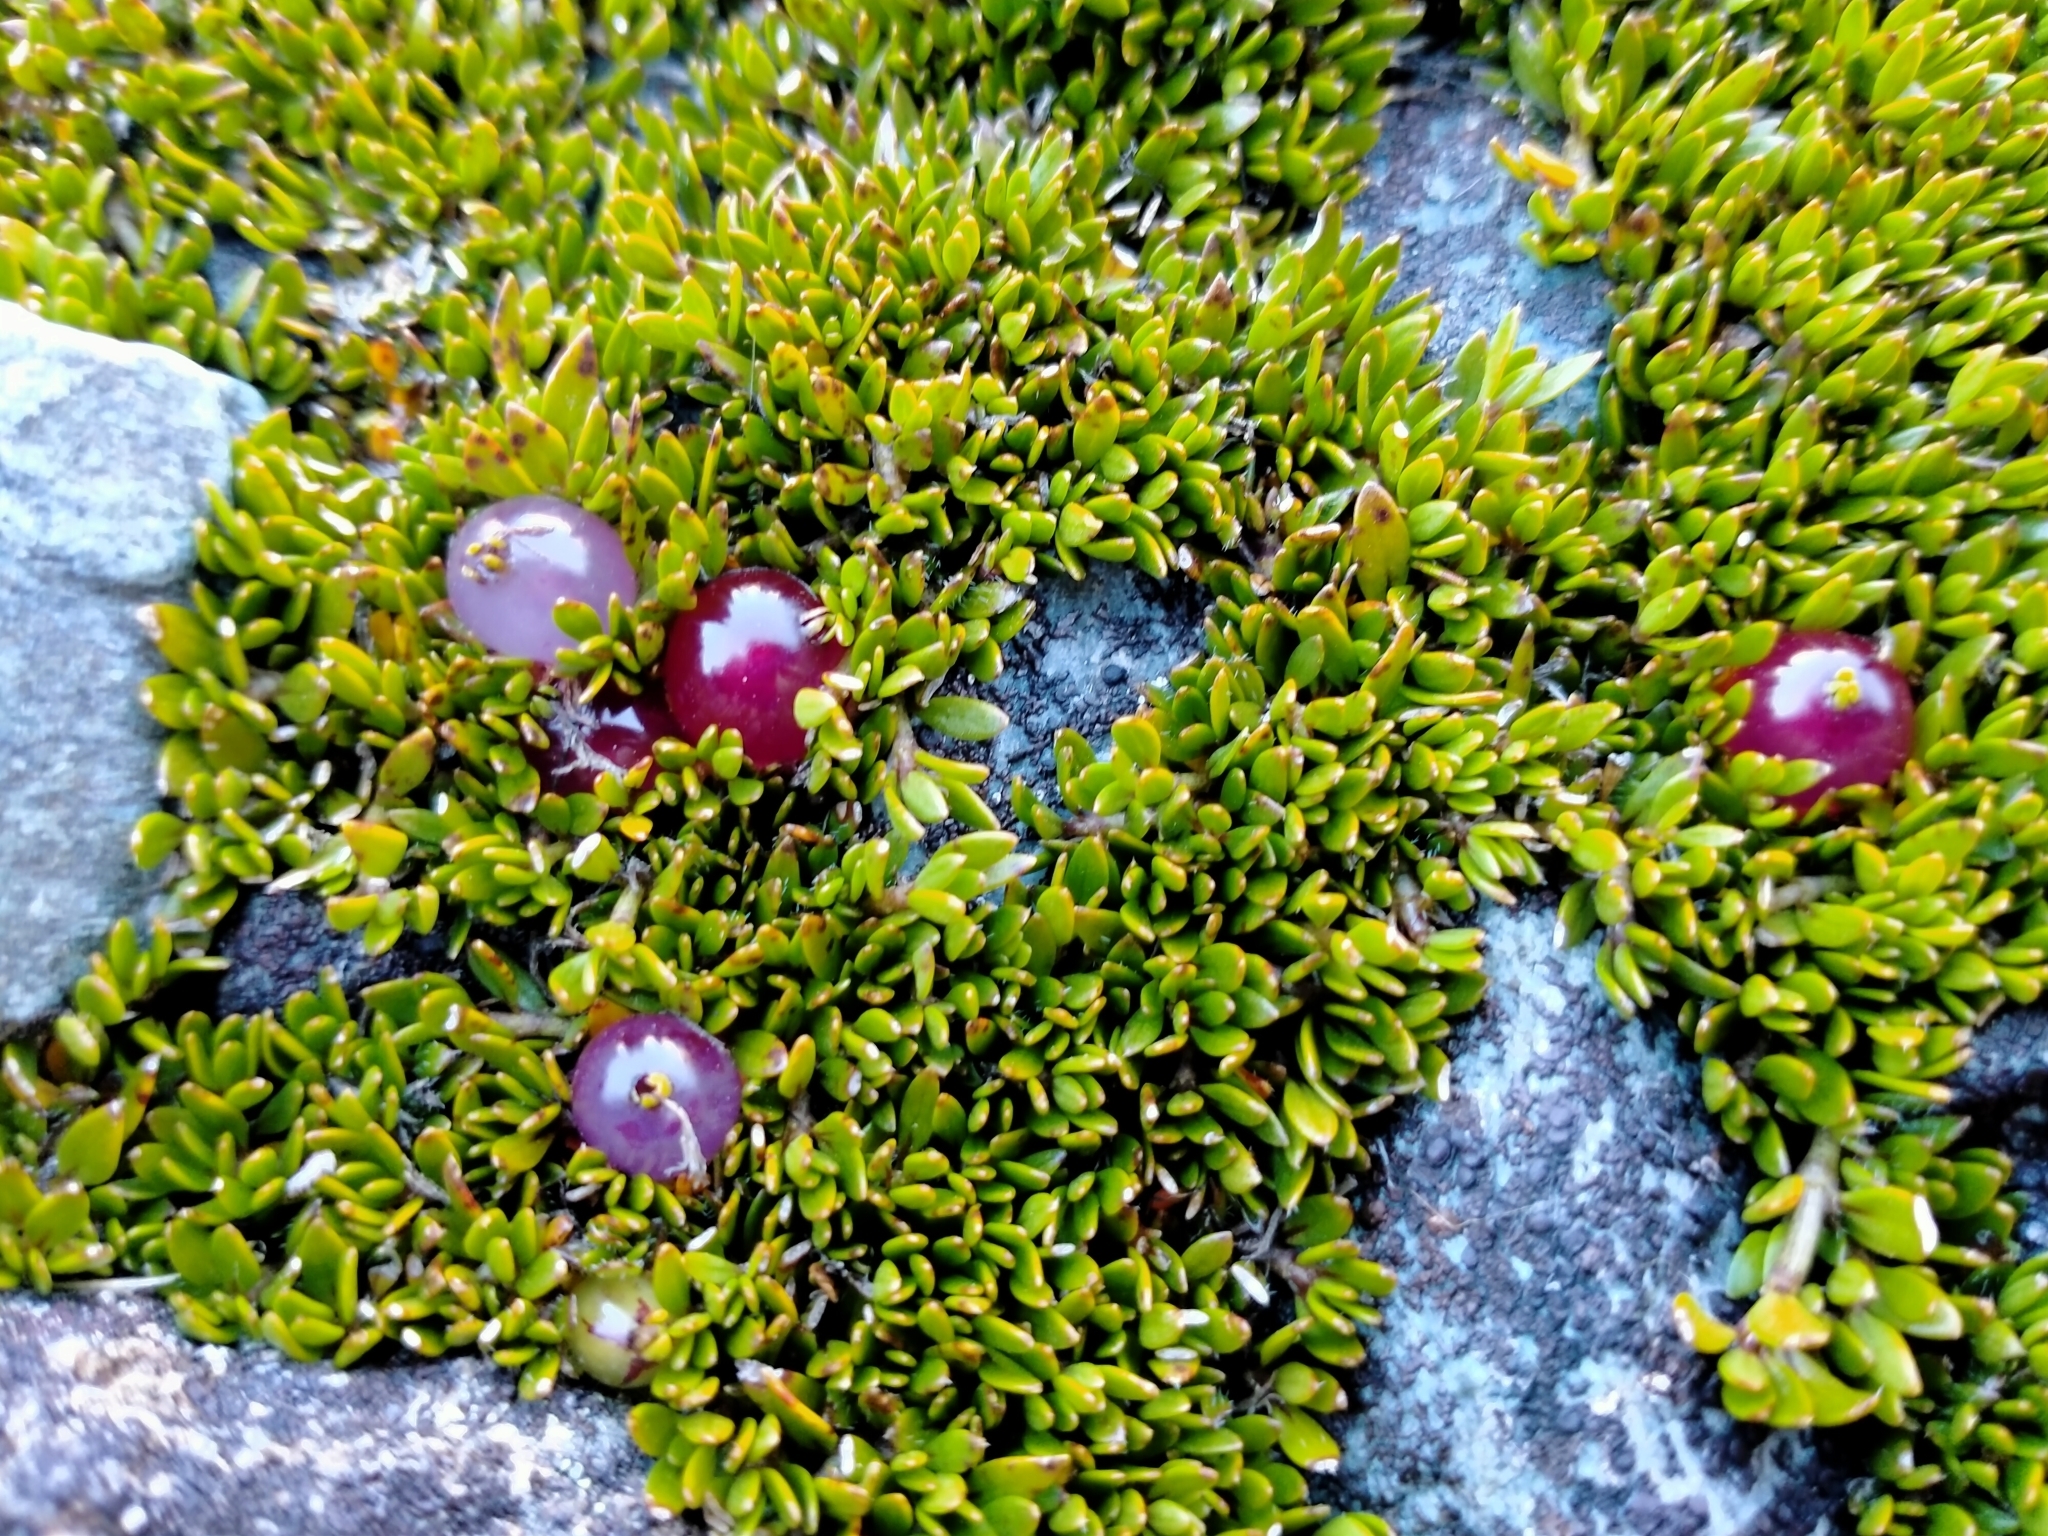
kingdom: Plantae
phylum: Tracheophyta
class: Magnoliopsida
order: Gentianales
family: Rubiaceae
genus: Coprosma
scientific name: Coprosma atropurpurea
